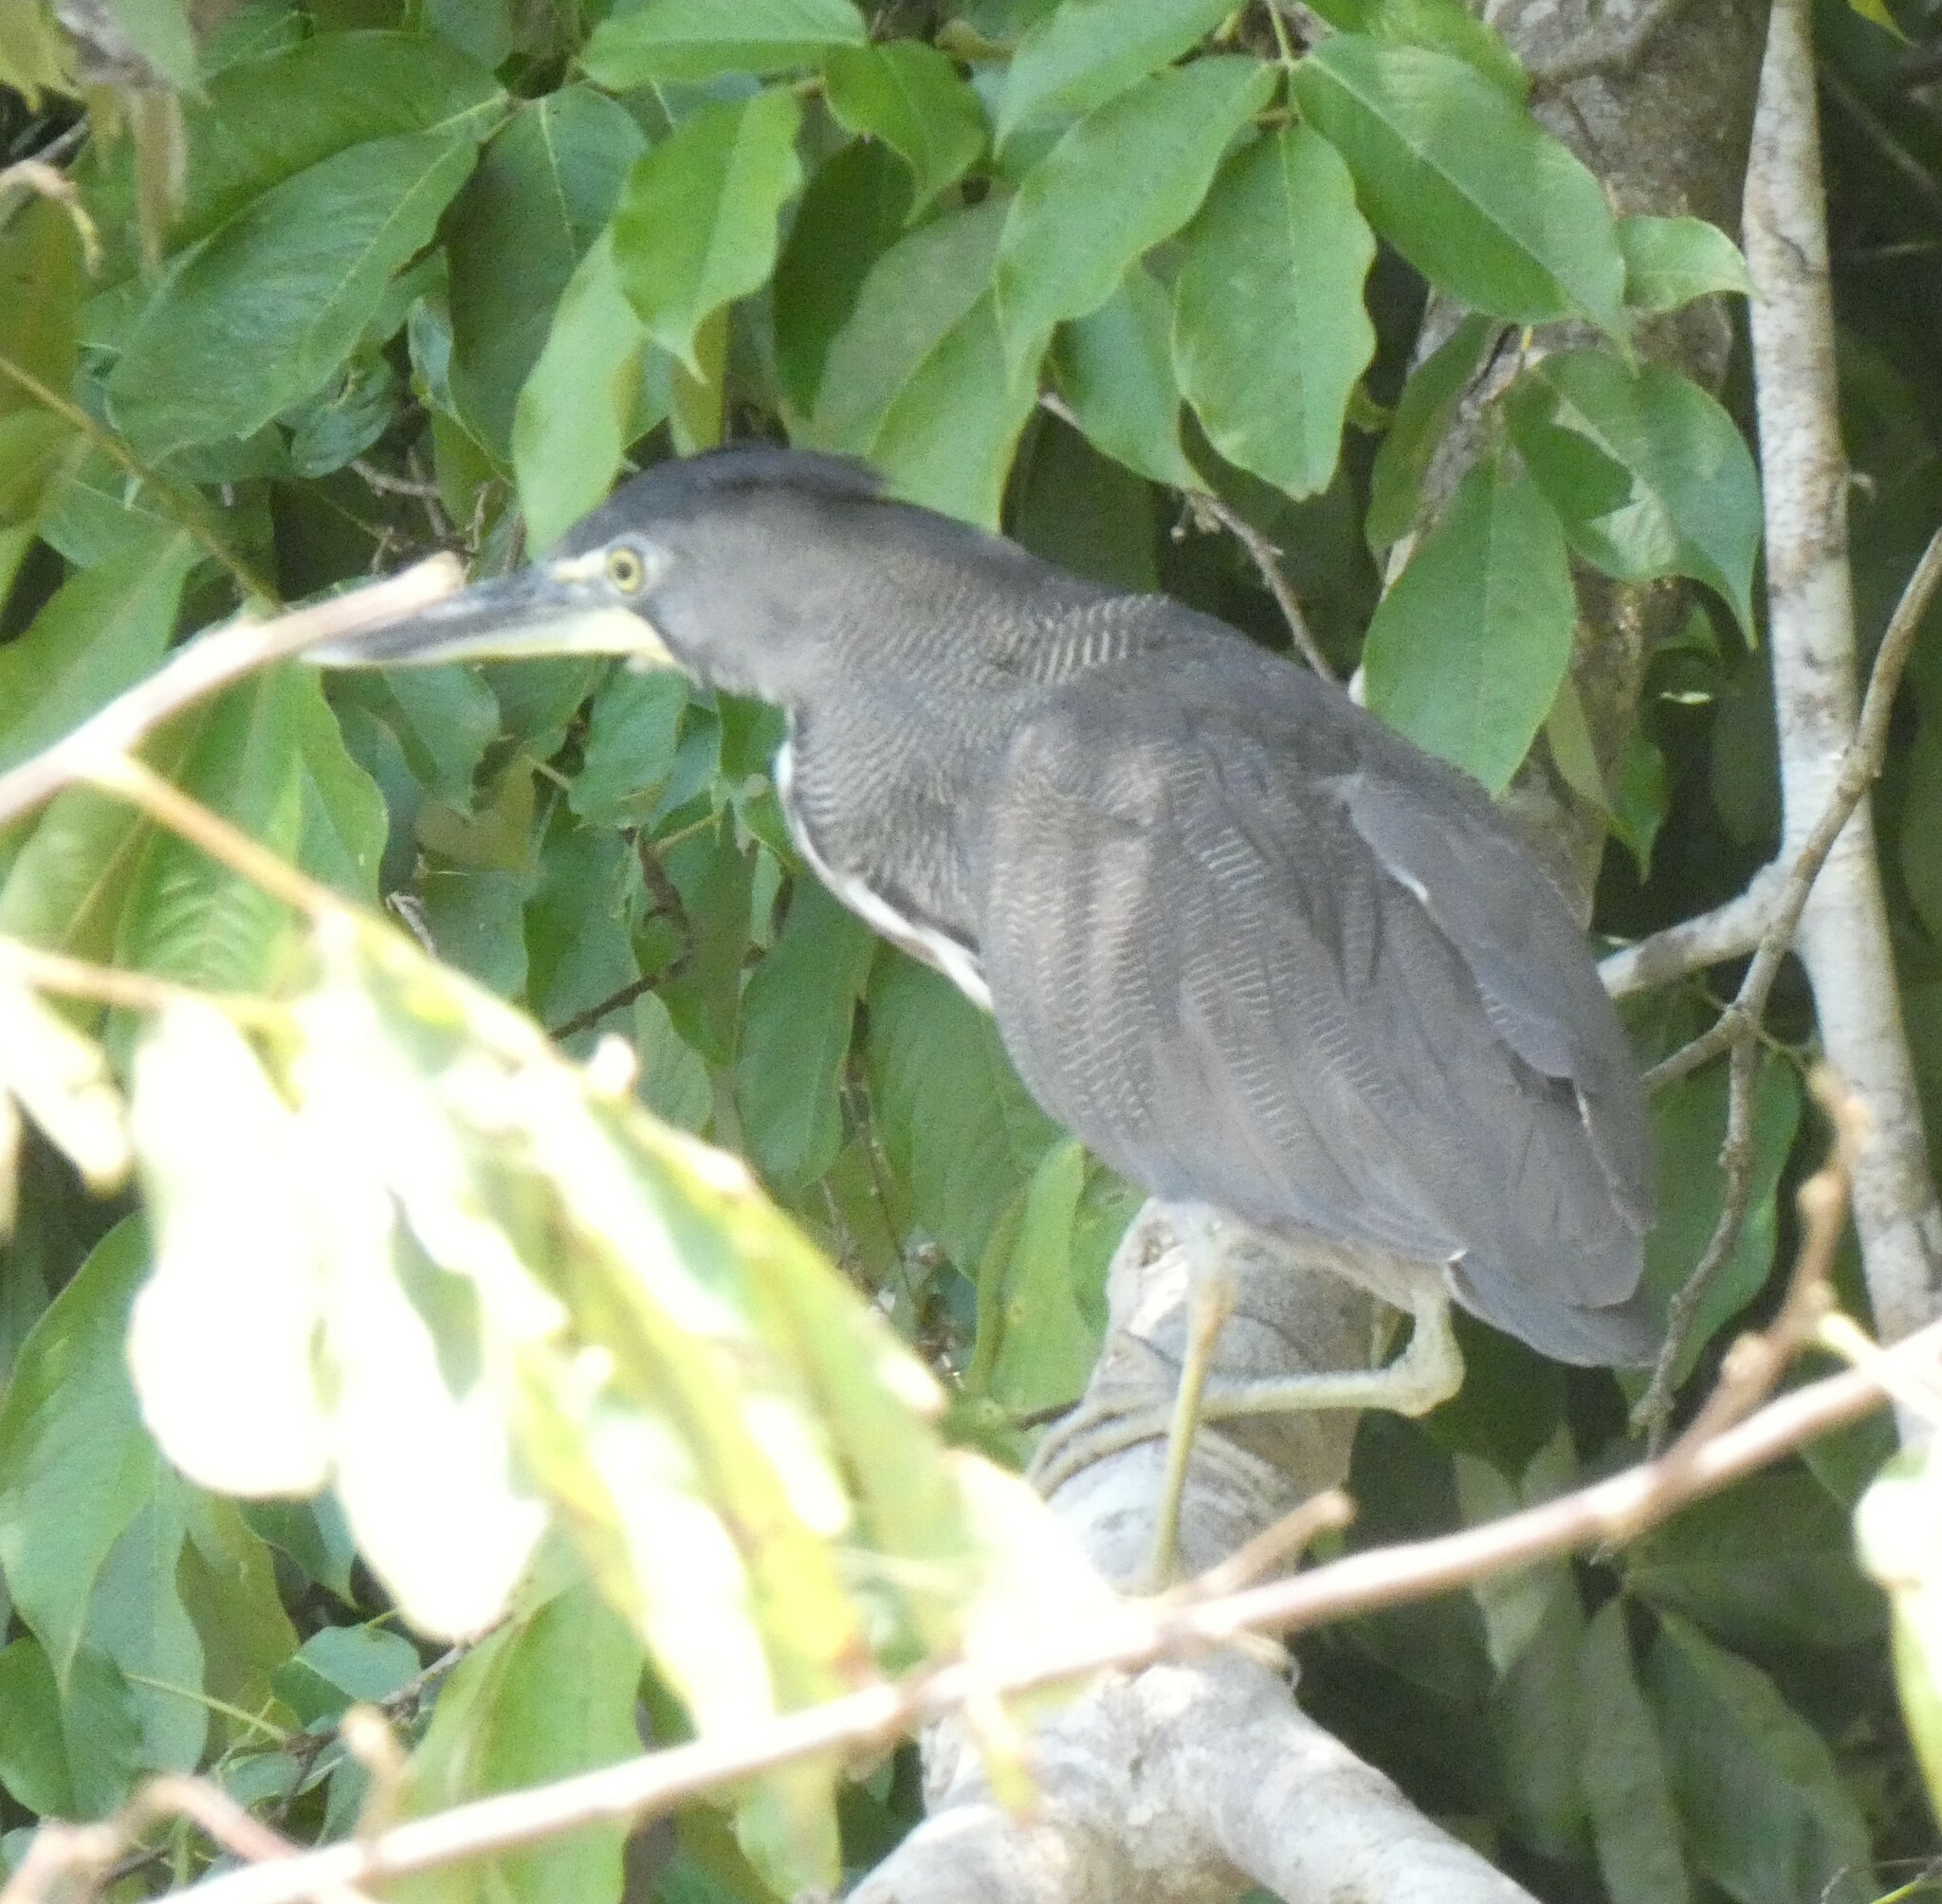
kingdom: Animalia
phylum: Chordata
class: Aves
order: Pelecaniformes
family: Ardeidae
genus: Tigrisoma
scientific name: Tigrisoma fasciatum
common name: Fasciated tiger-heron
